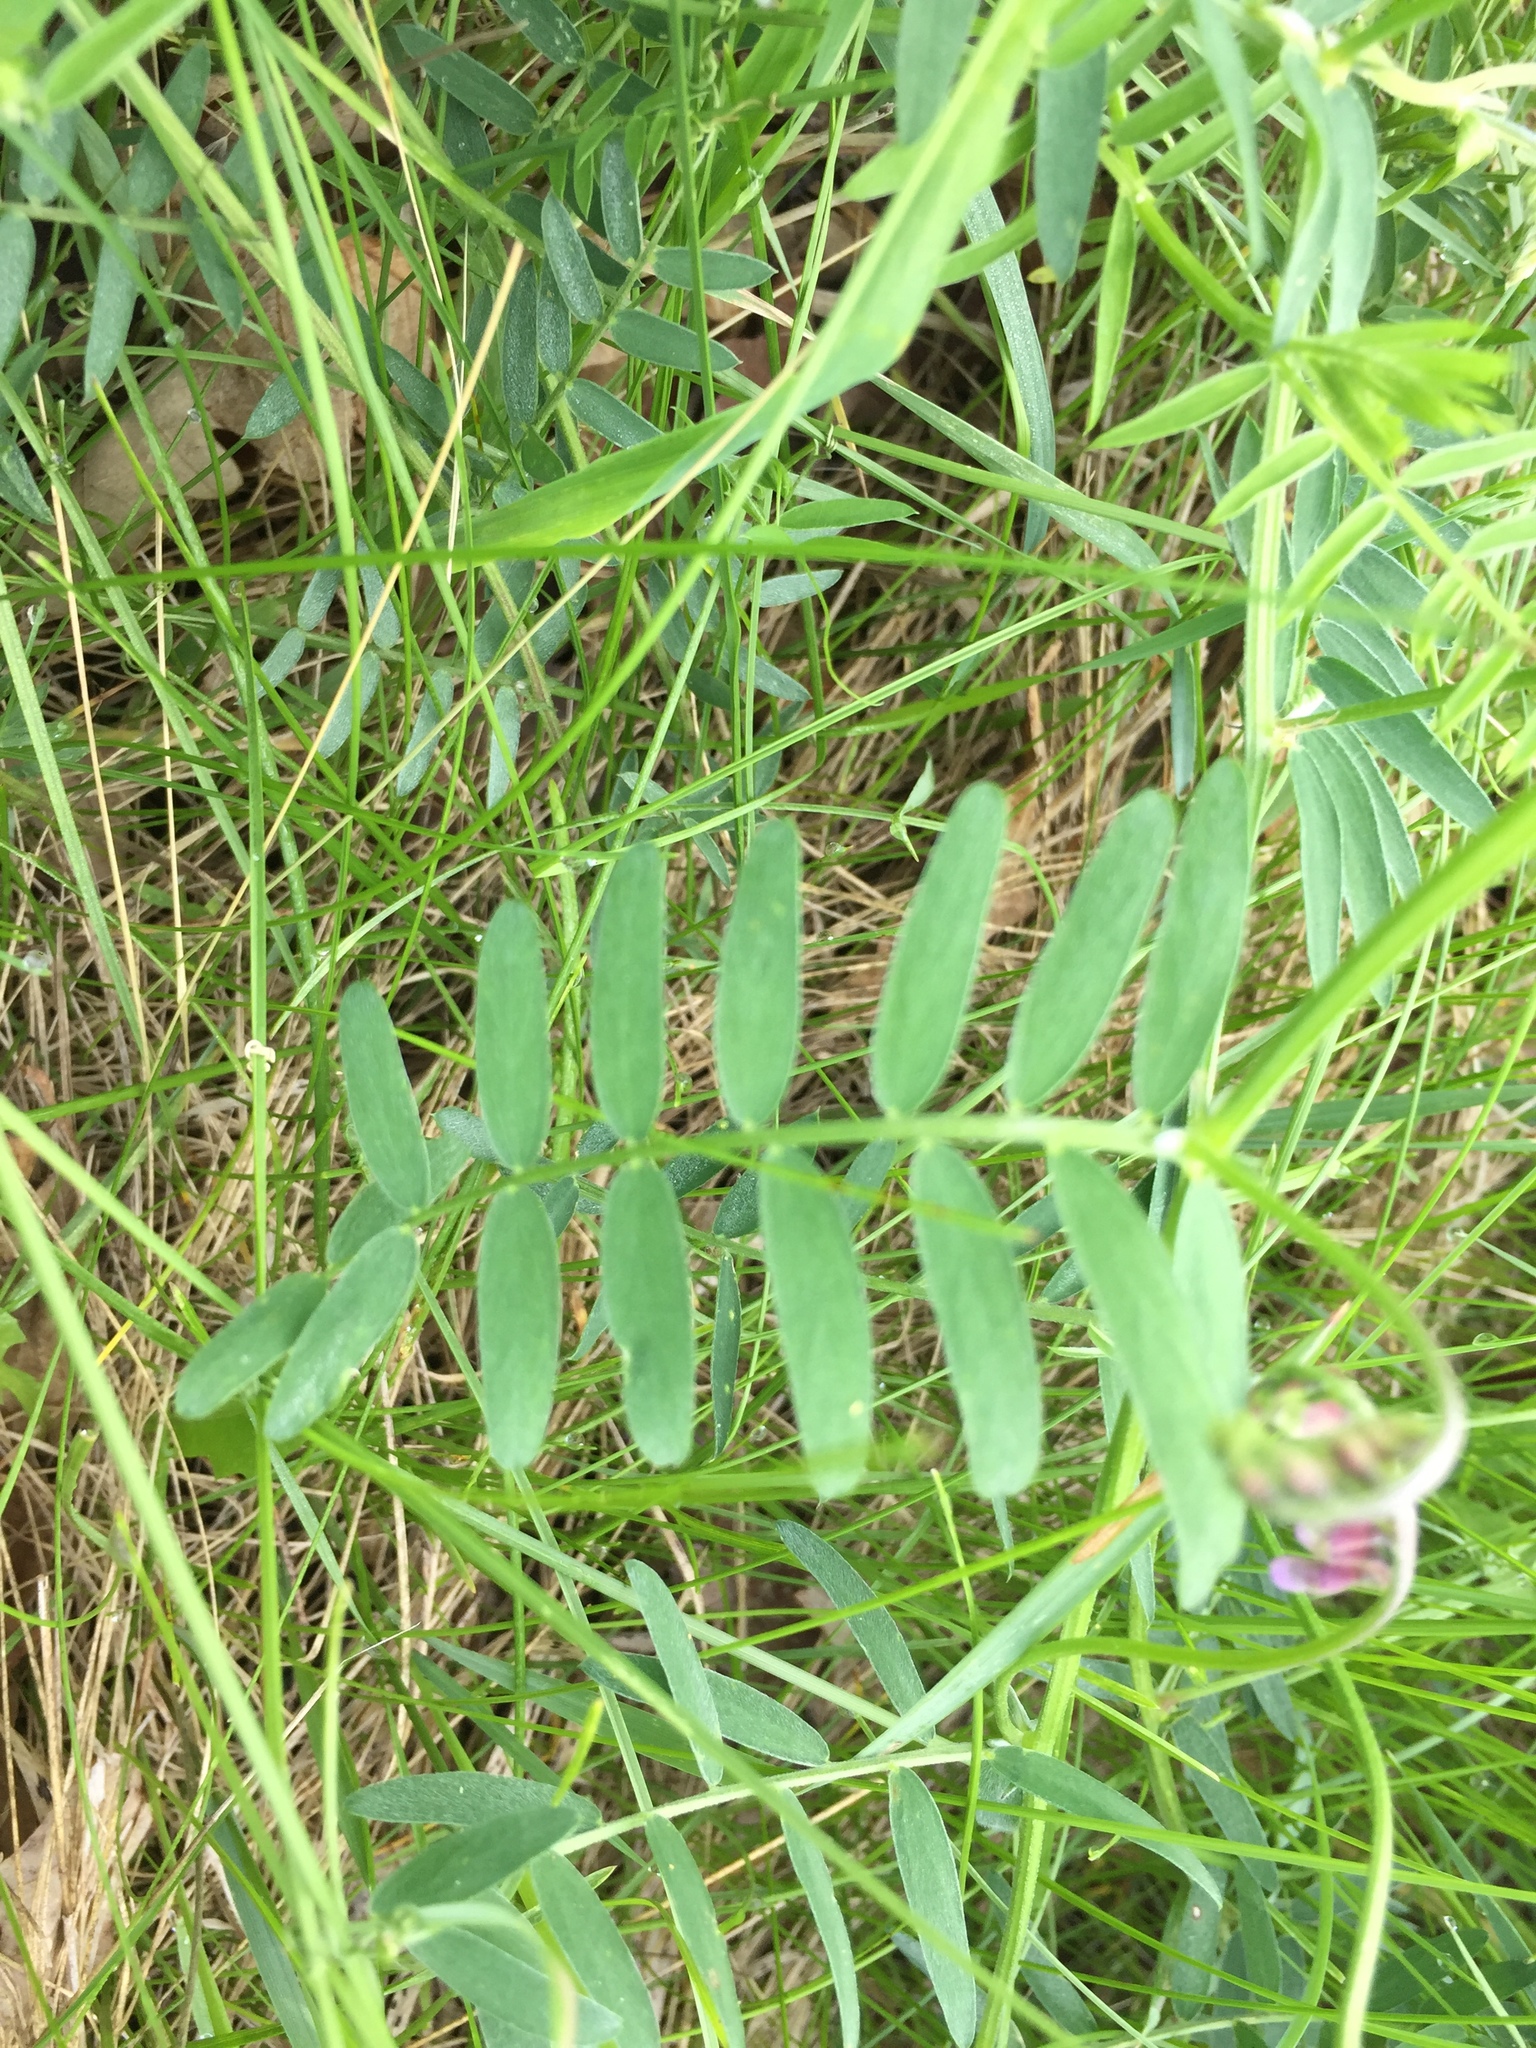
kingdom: Plantae
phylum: Tracheophyta
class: Magnoliopsida
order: Fabales
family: Fabaceae
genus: Vicia
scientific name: Vicia cracca
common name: Bird vetch
